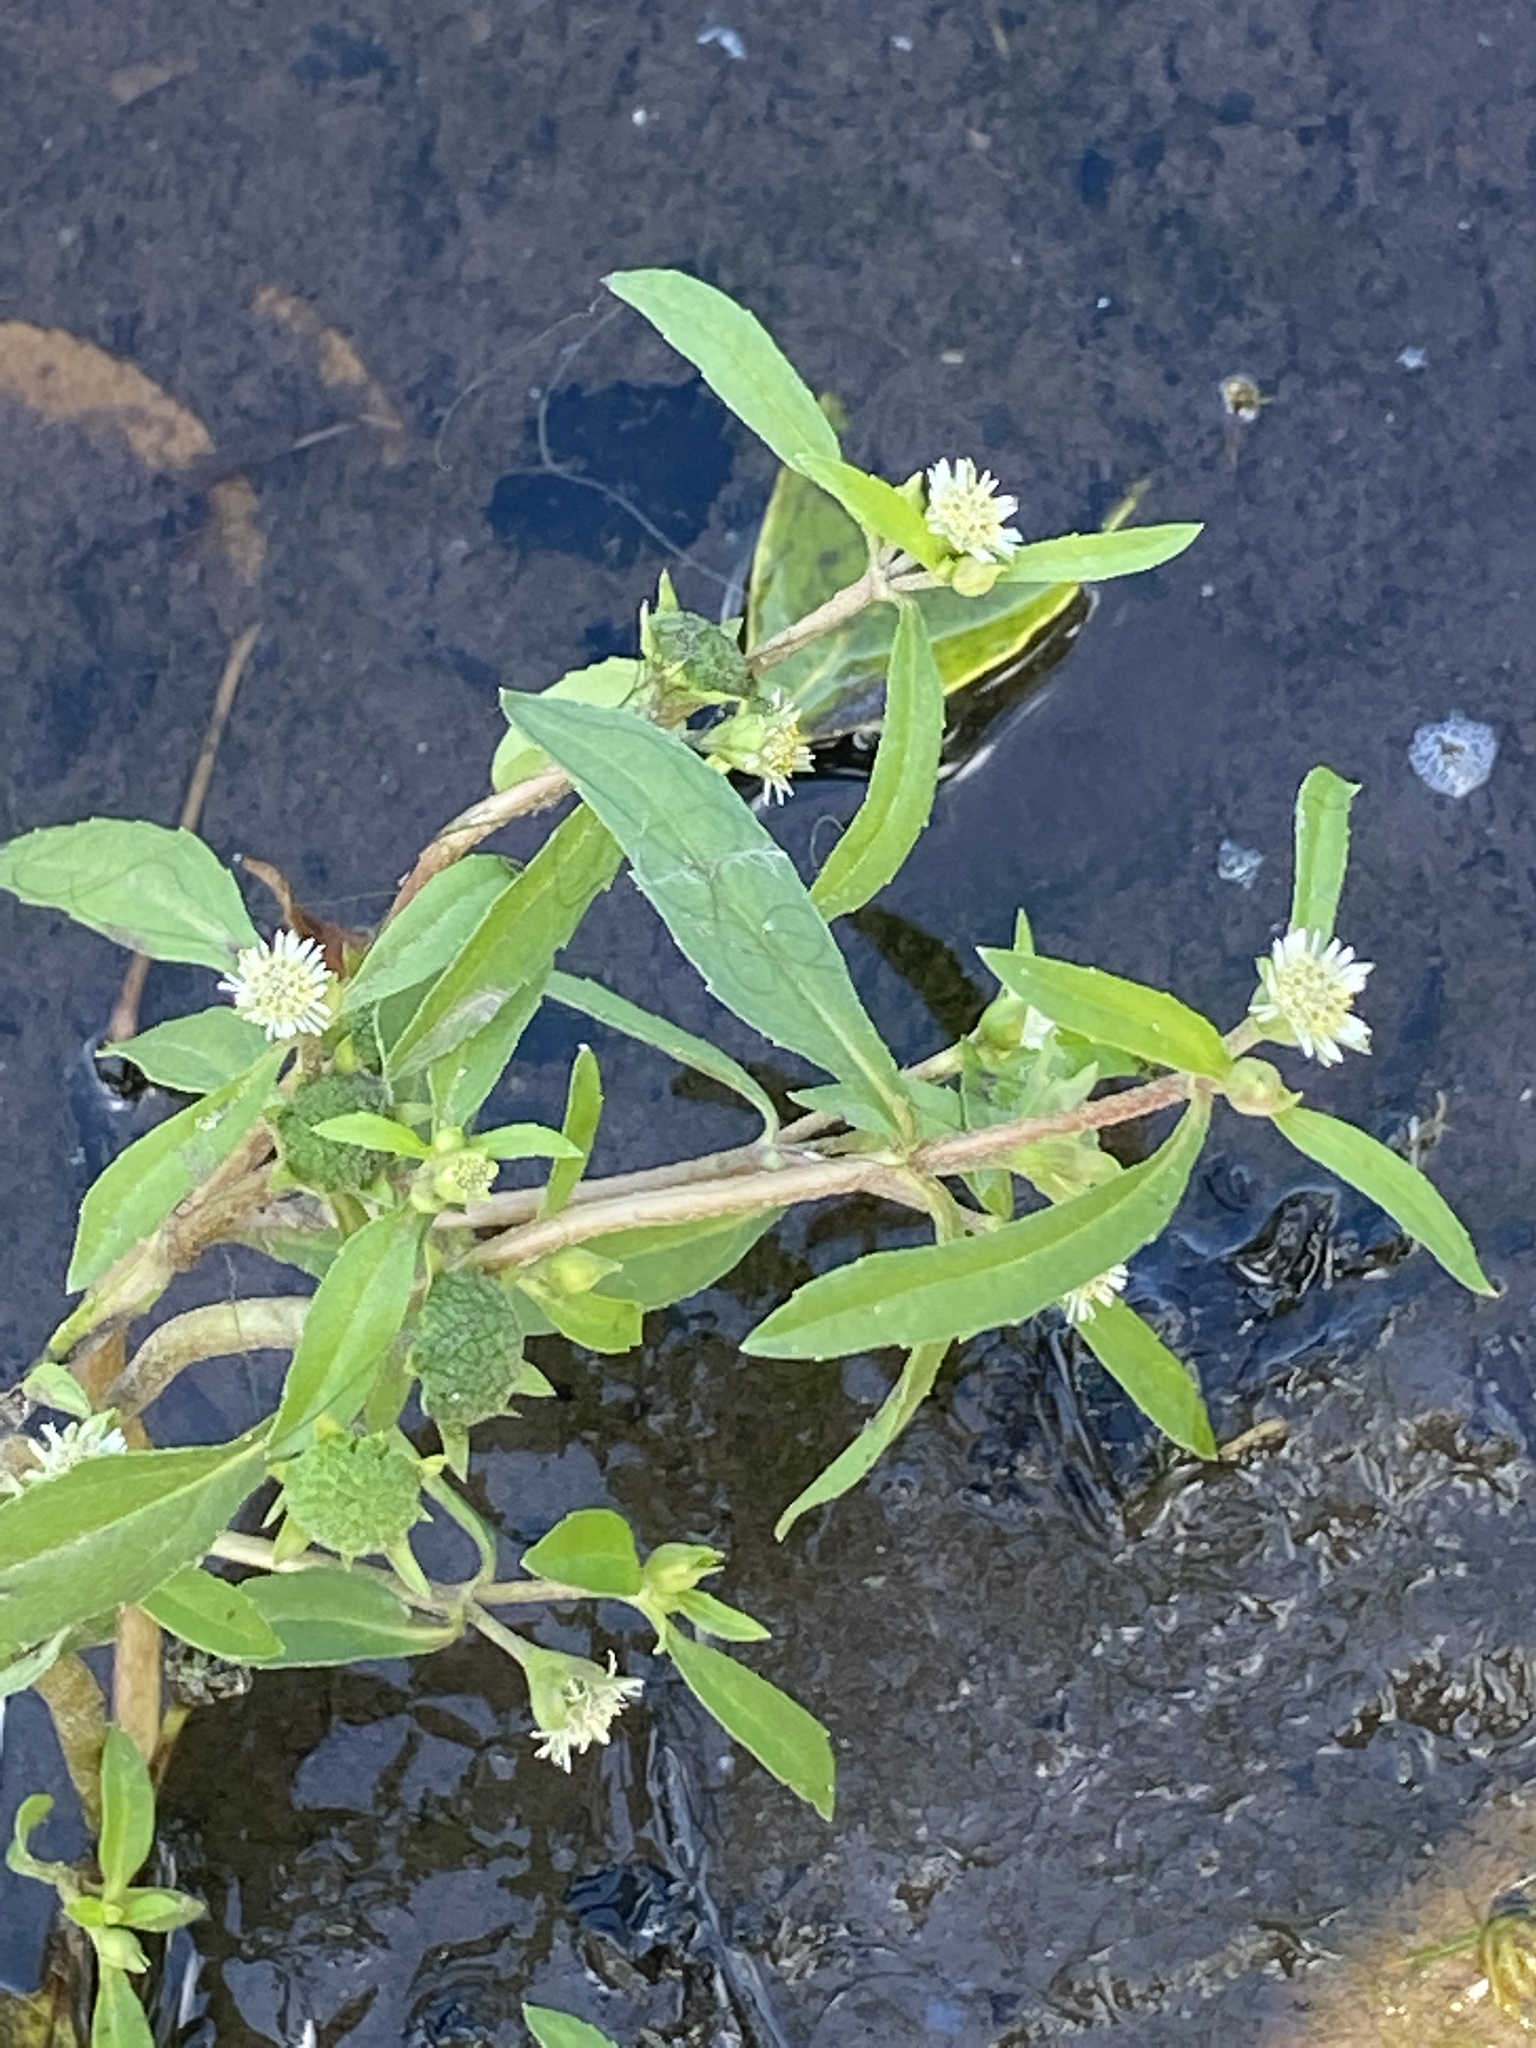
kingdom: Plantae
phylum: Tracheophyta
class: Magnoliopsida
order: Asterales
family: Asteraceae
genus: Eclipta
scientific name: Eclipta prostrata
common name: False daisy
